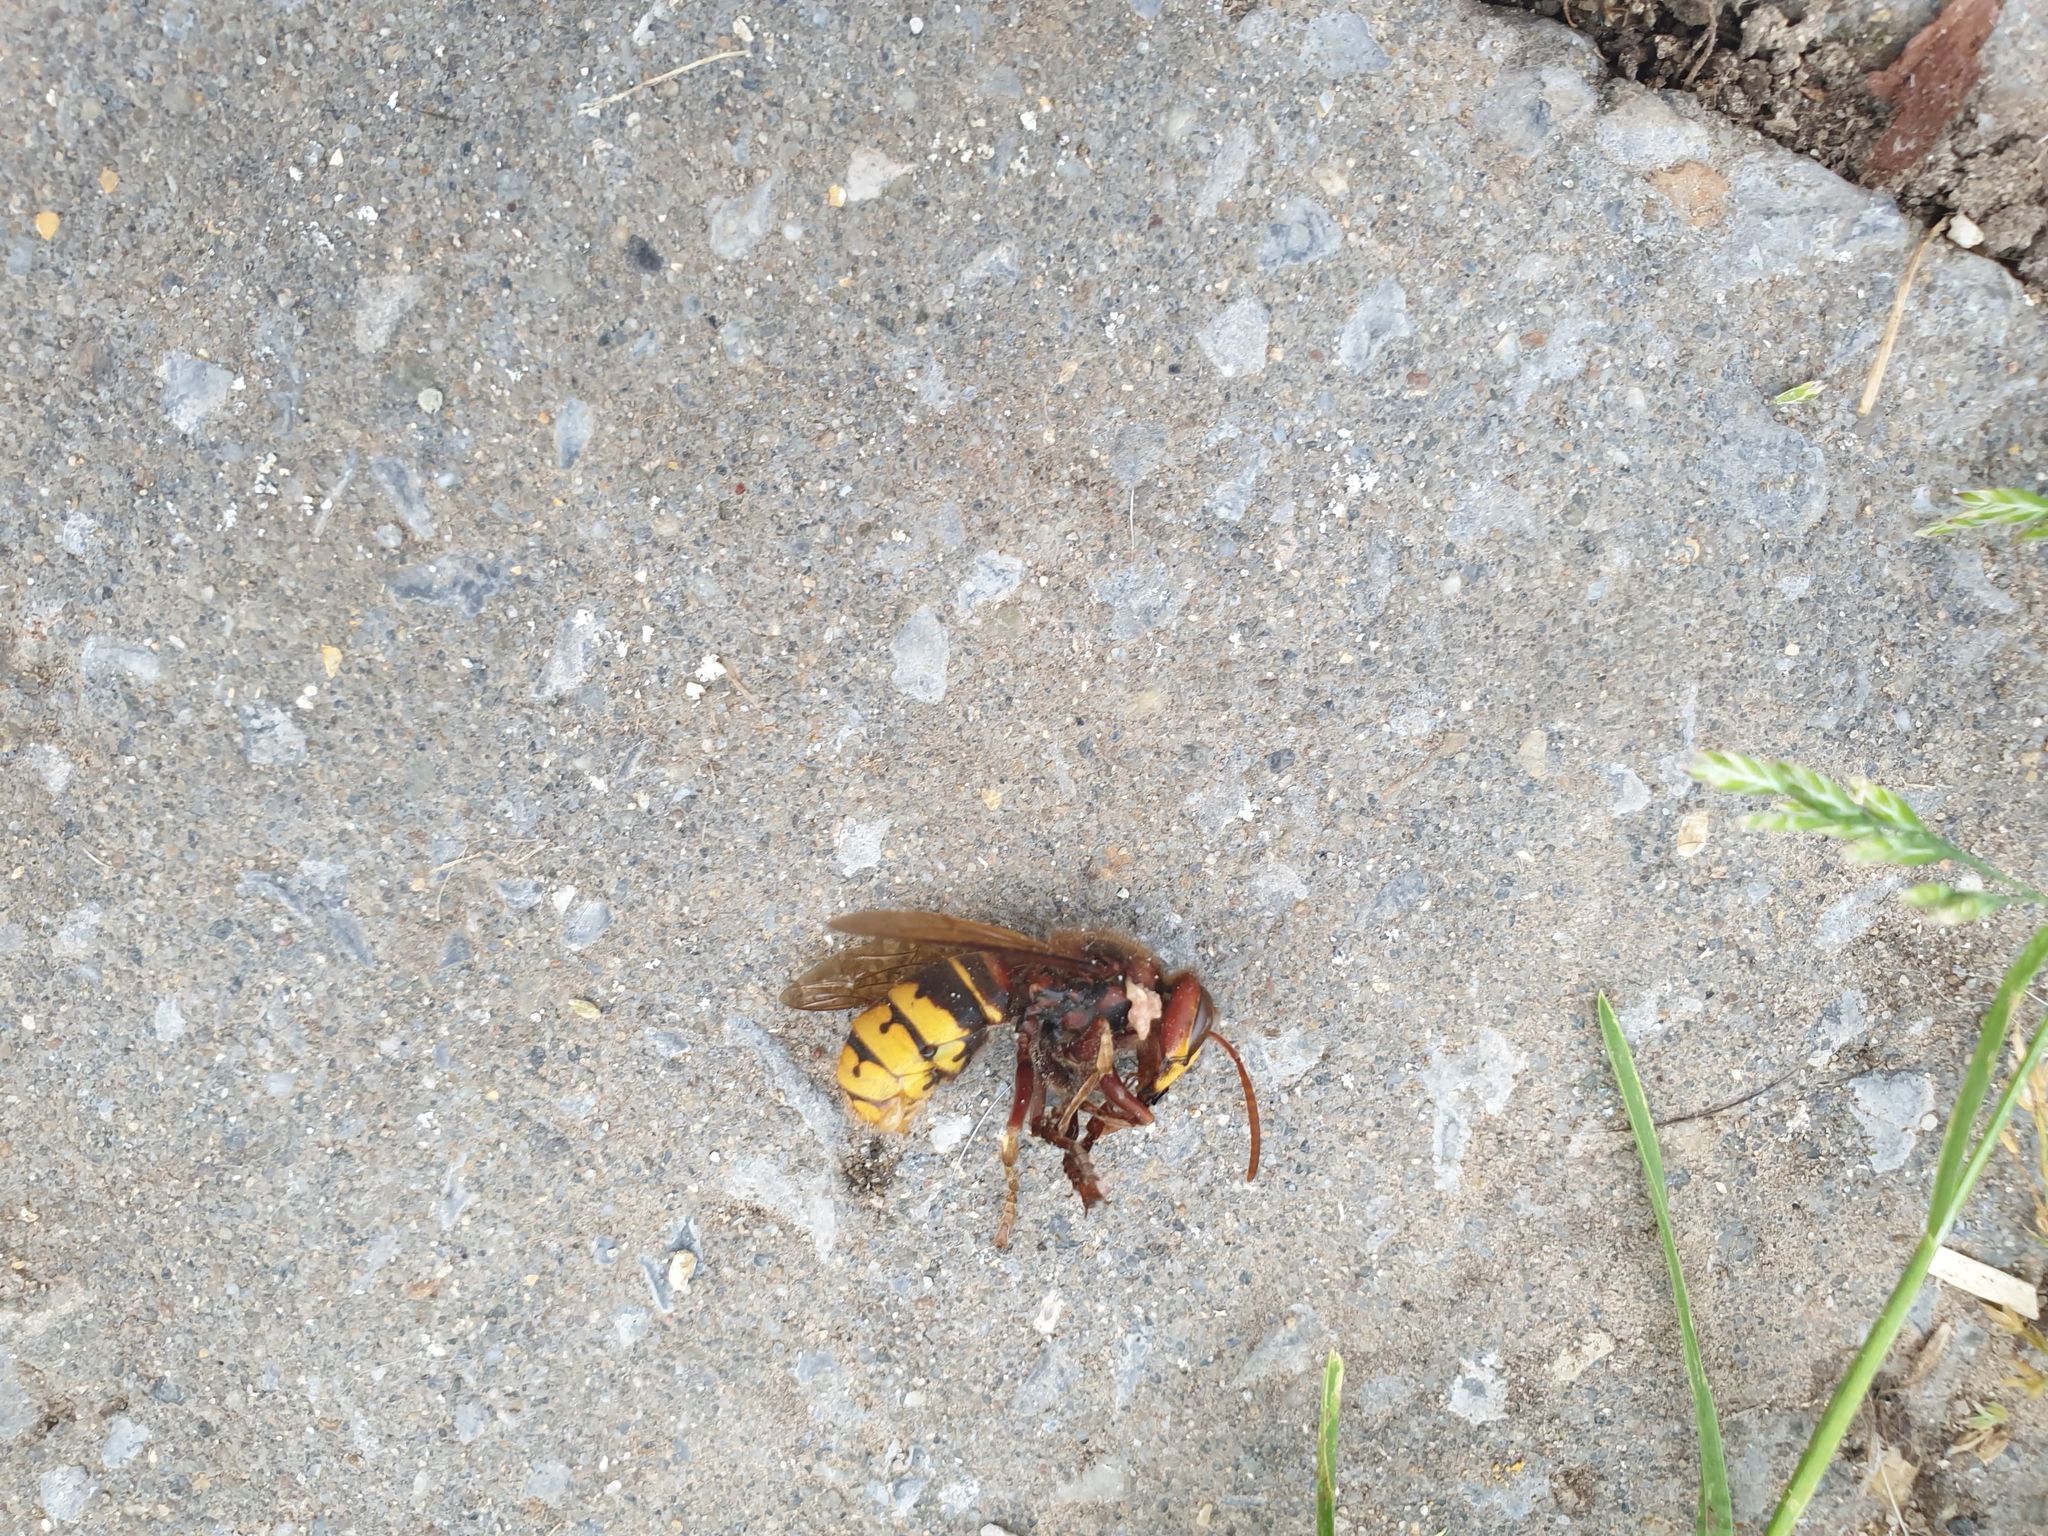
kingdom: Animalia
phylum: Arthropoda
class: Insecta
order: Hymenoptera
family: Vespidae
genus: Vespa
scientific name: Vespa crabro
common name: Hornet
